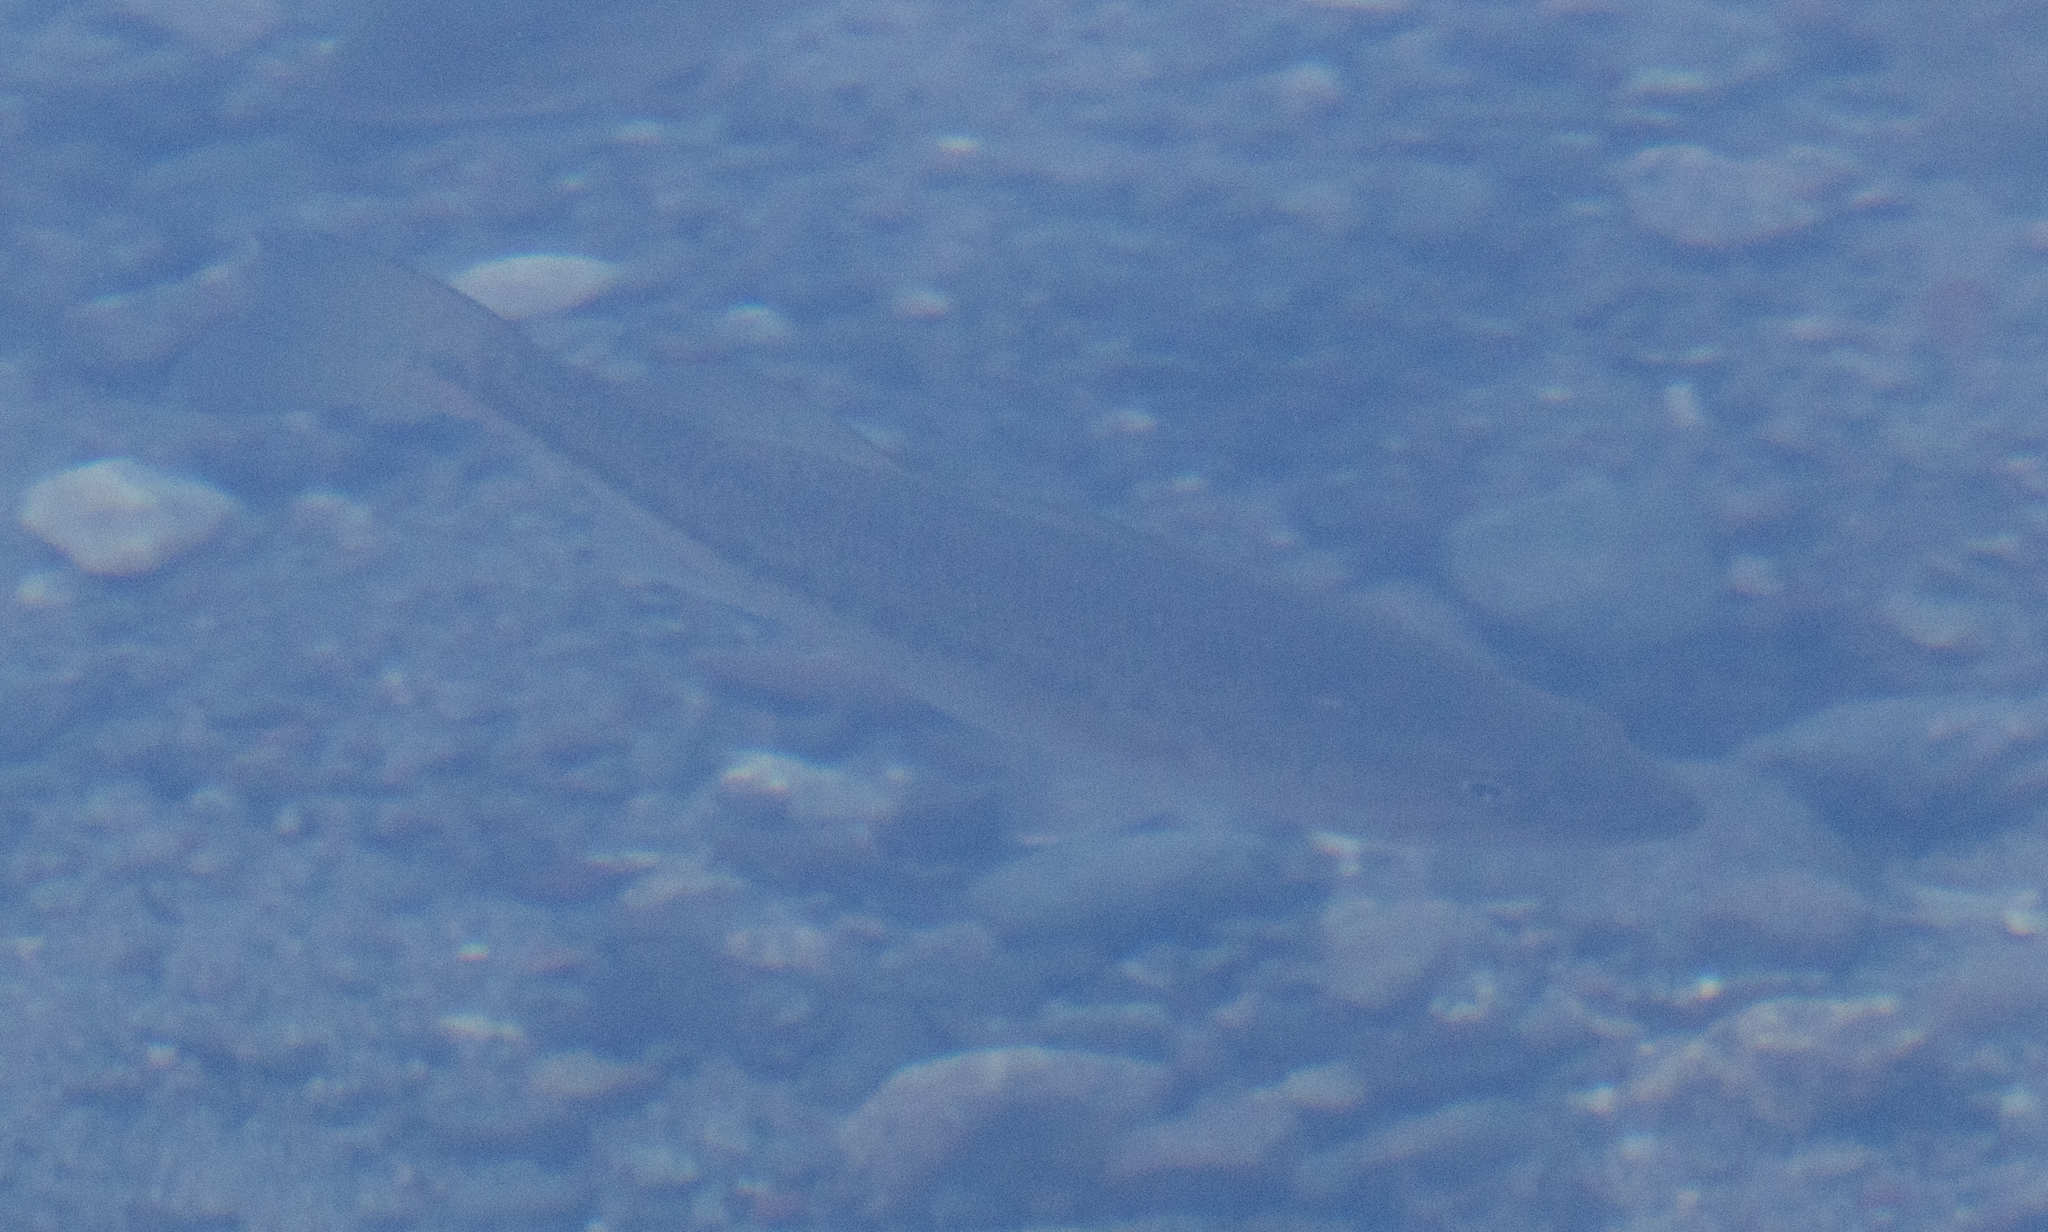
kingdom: Animalia
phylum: Chordata
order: Perciformes
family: Centrarchidae
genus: Micropterus
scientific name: Micropterus
